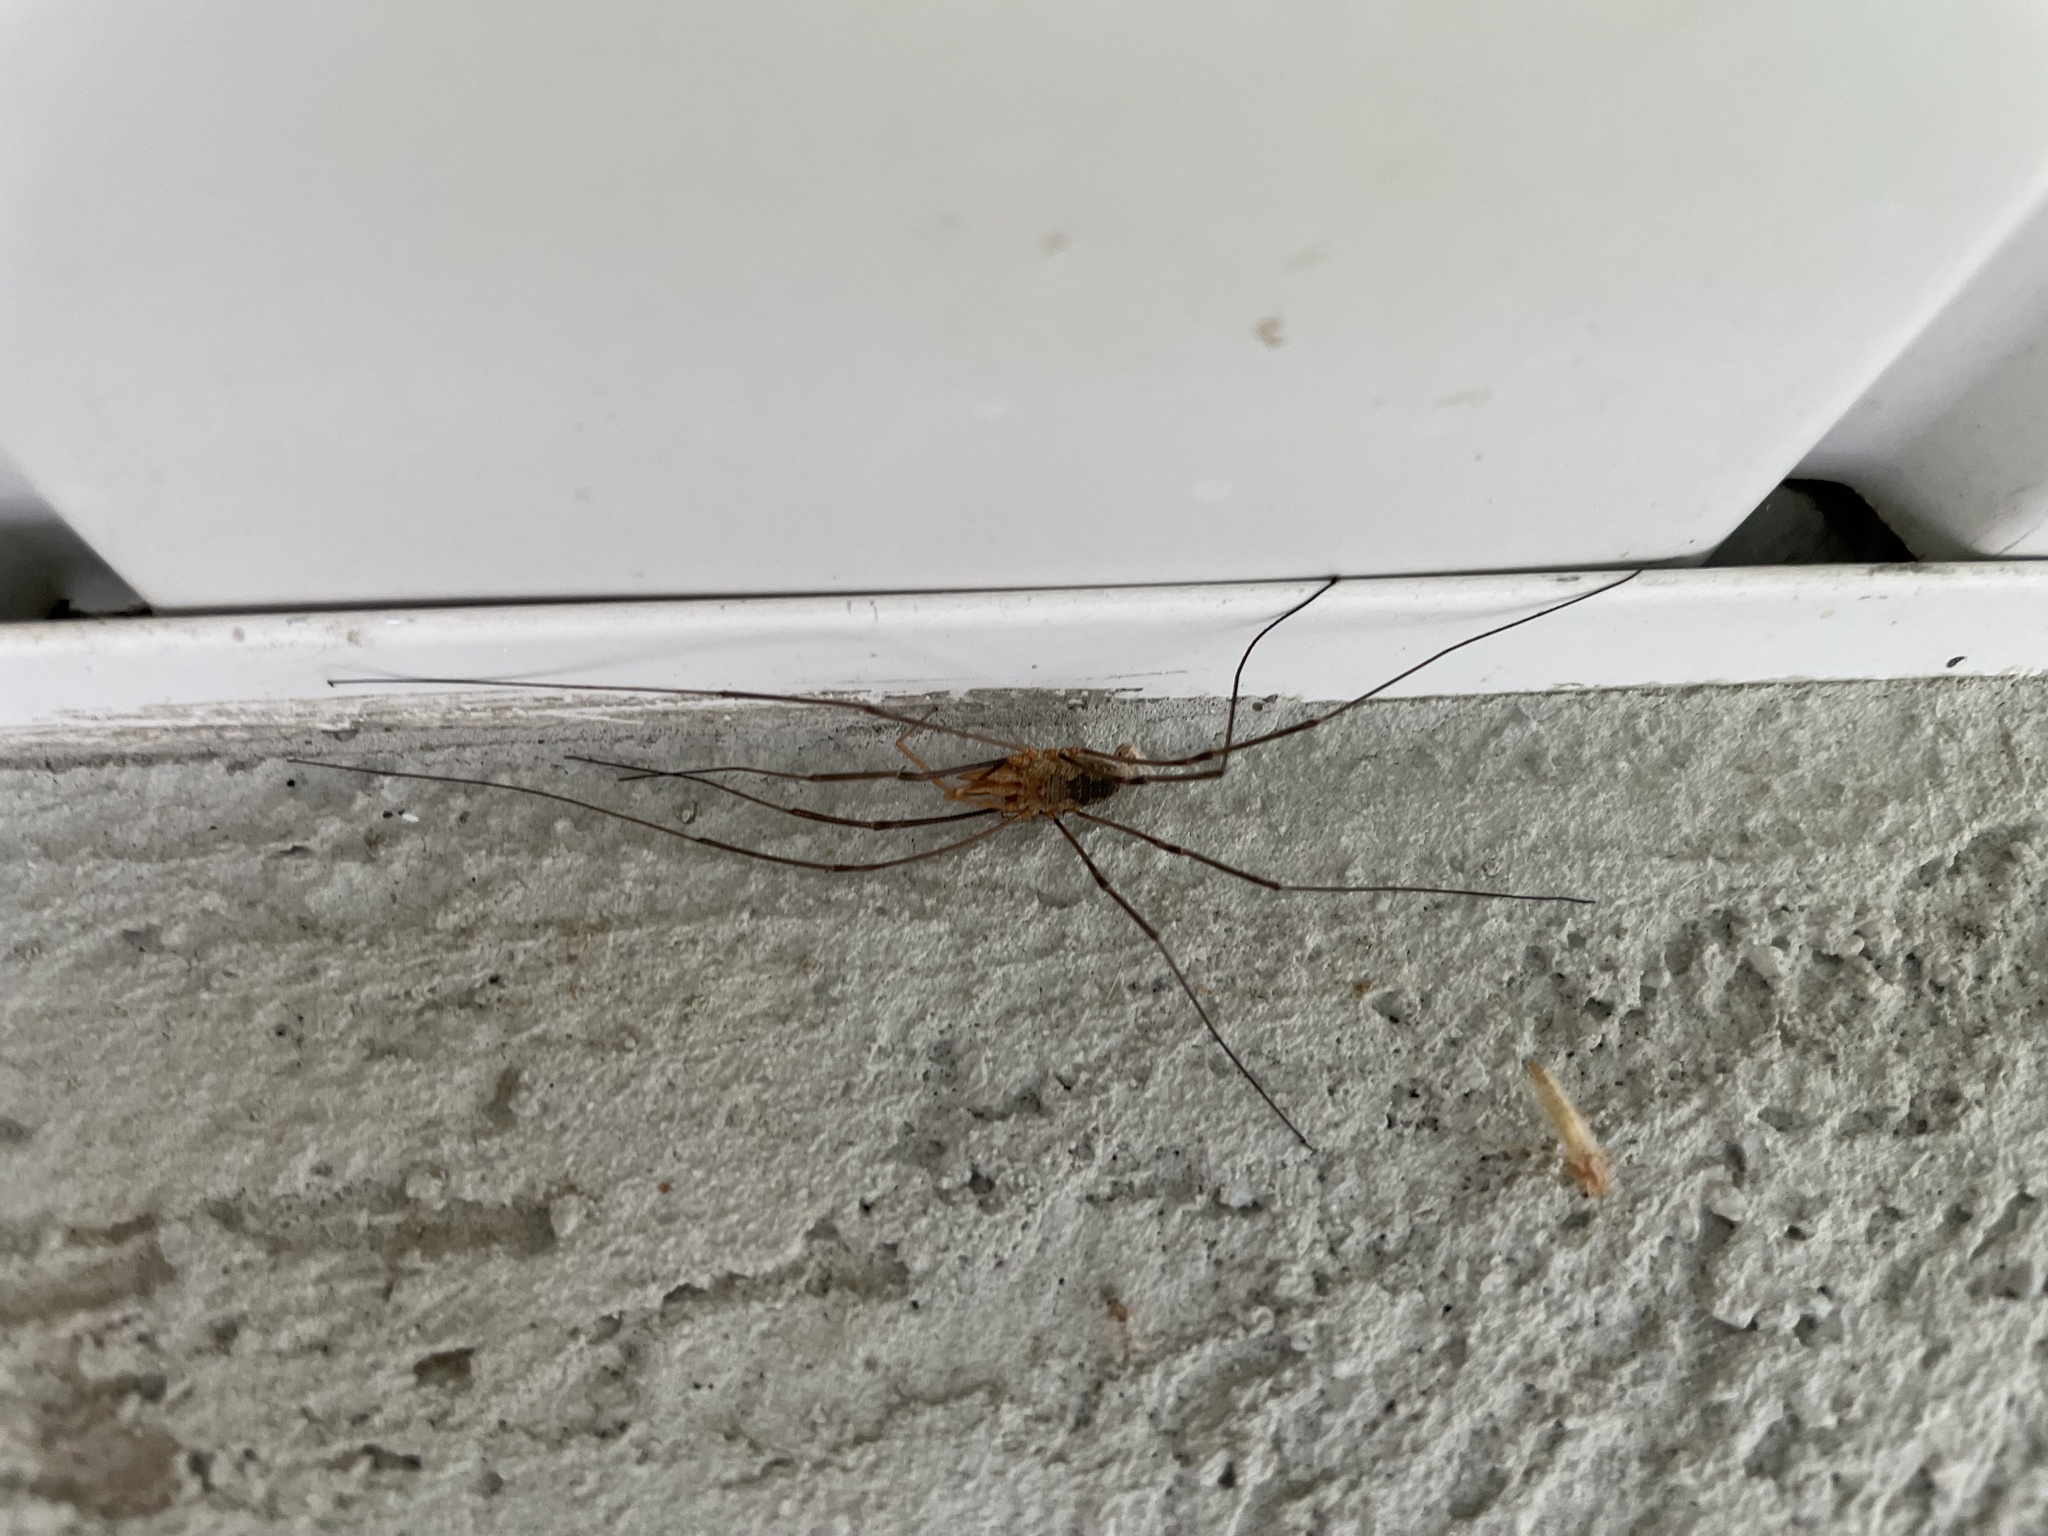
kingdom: Animalia
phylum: Arthropoda
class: Arachnida
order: Opiliones
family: Phalangiidae
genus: Phalangium
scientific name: Phalangium opilio
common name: Daddy longleg
